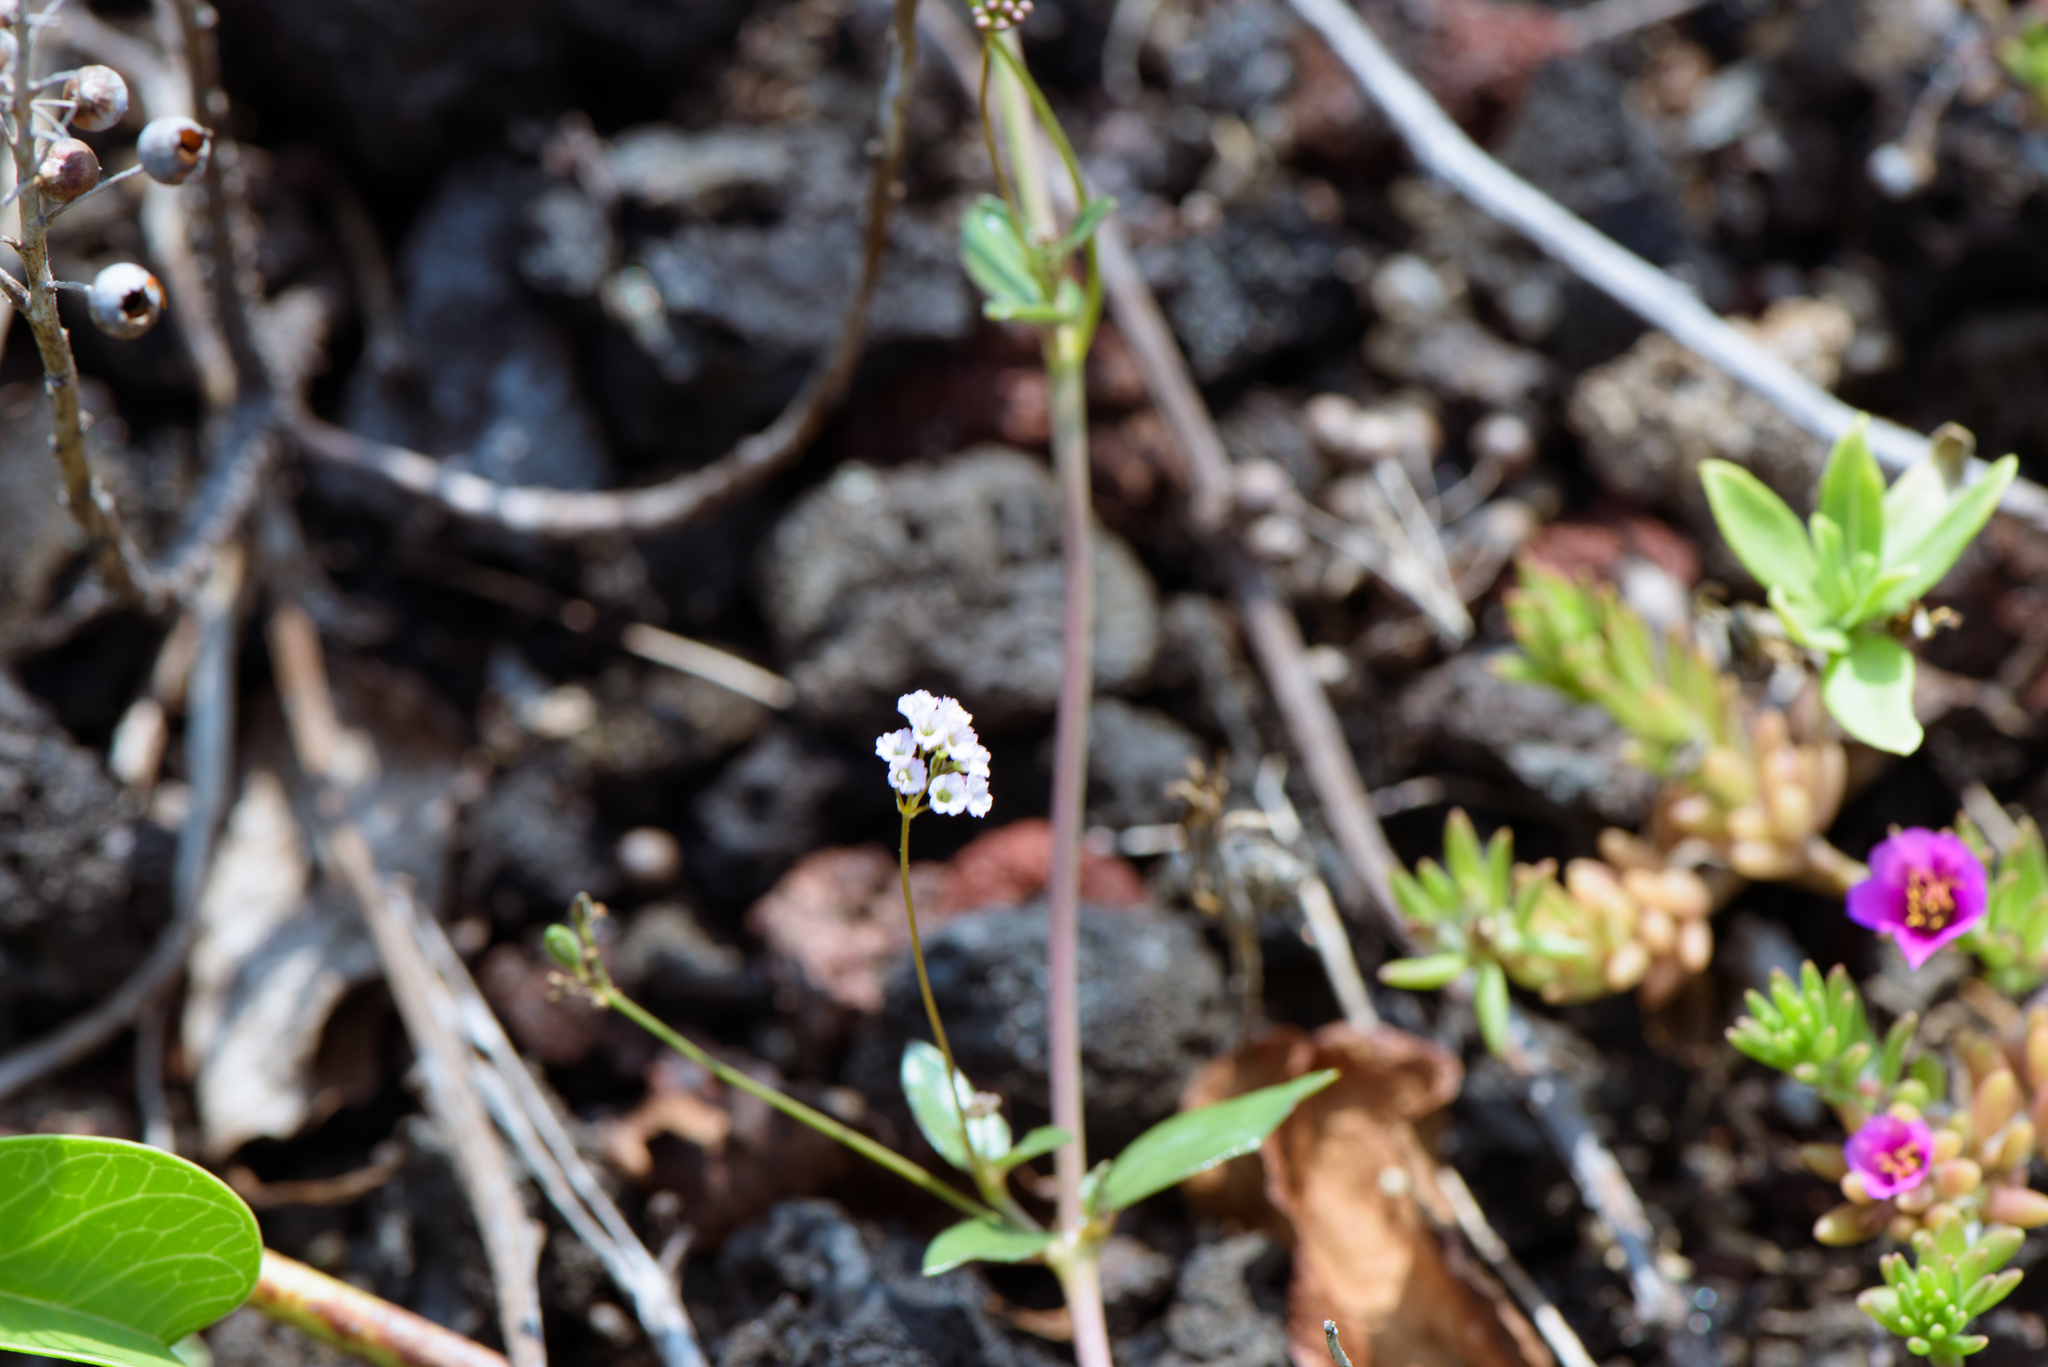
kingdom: Plantae
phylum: Tracheophyta
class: Magnoliopsida
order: Caryophyllales
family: Nyctaginaceae
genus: Boerhavia
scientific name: Boerhavia glabrata
